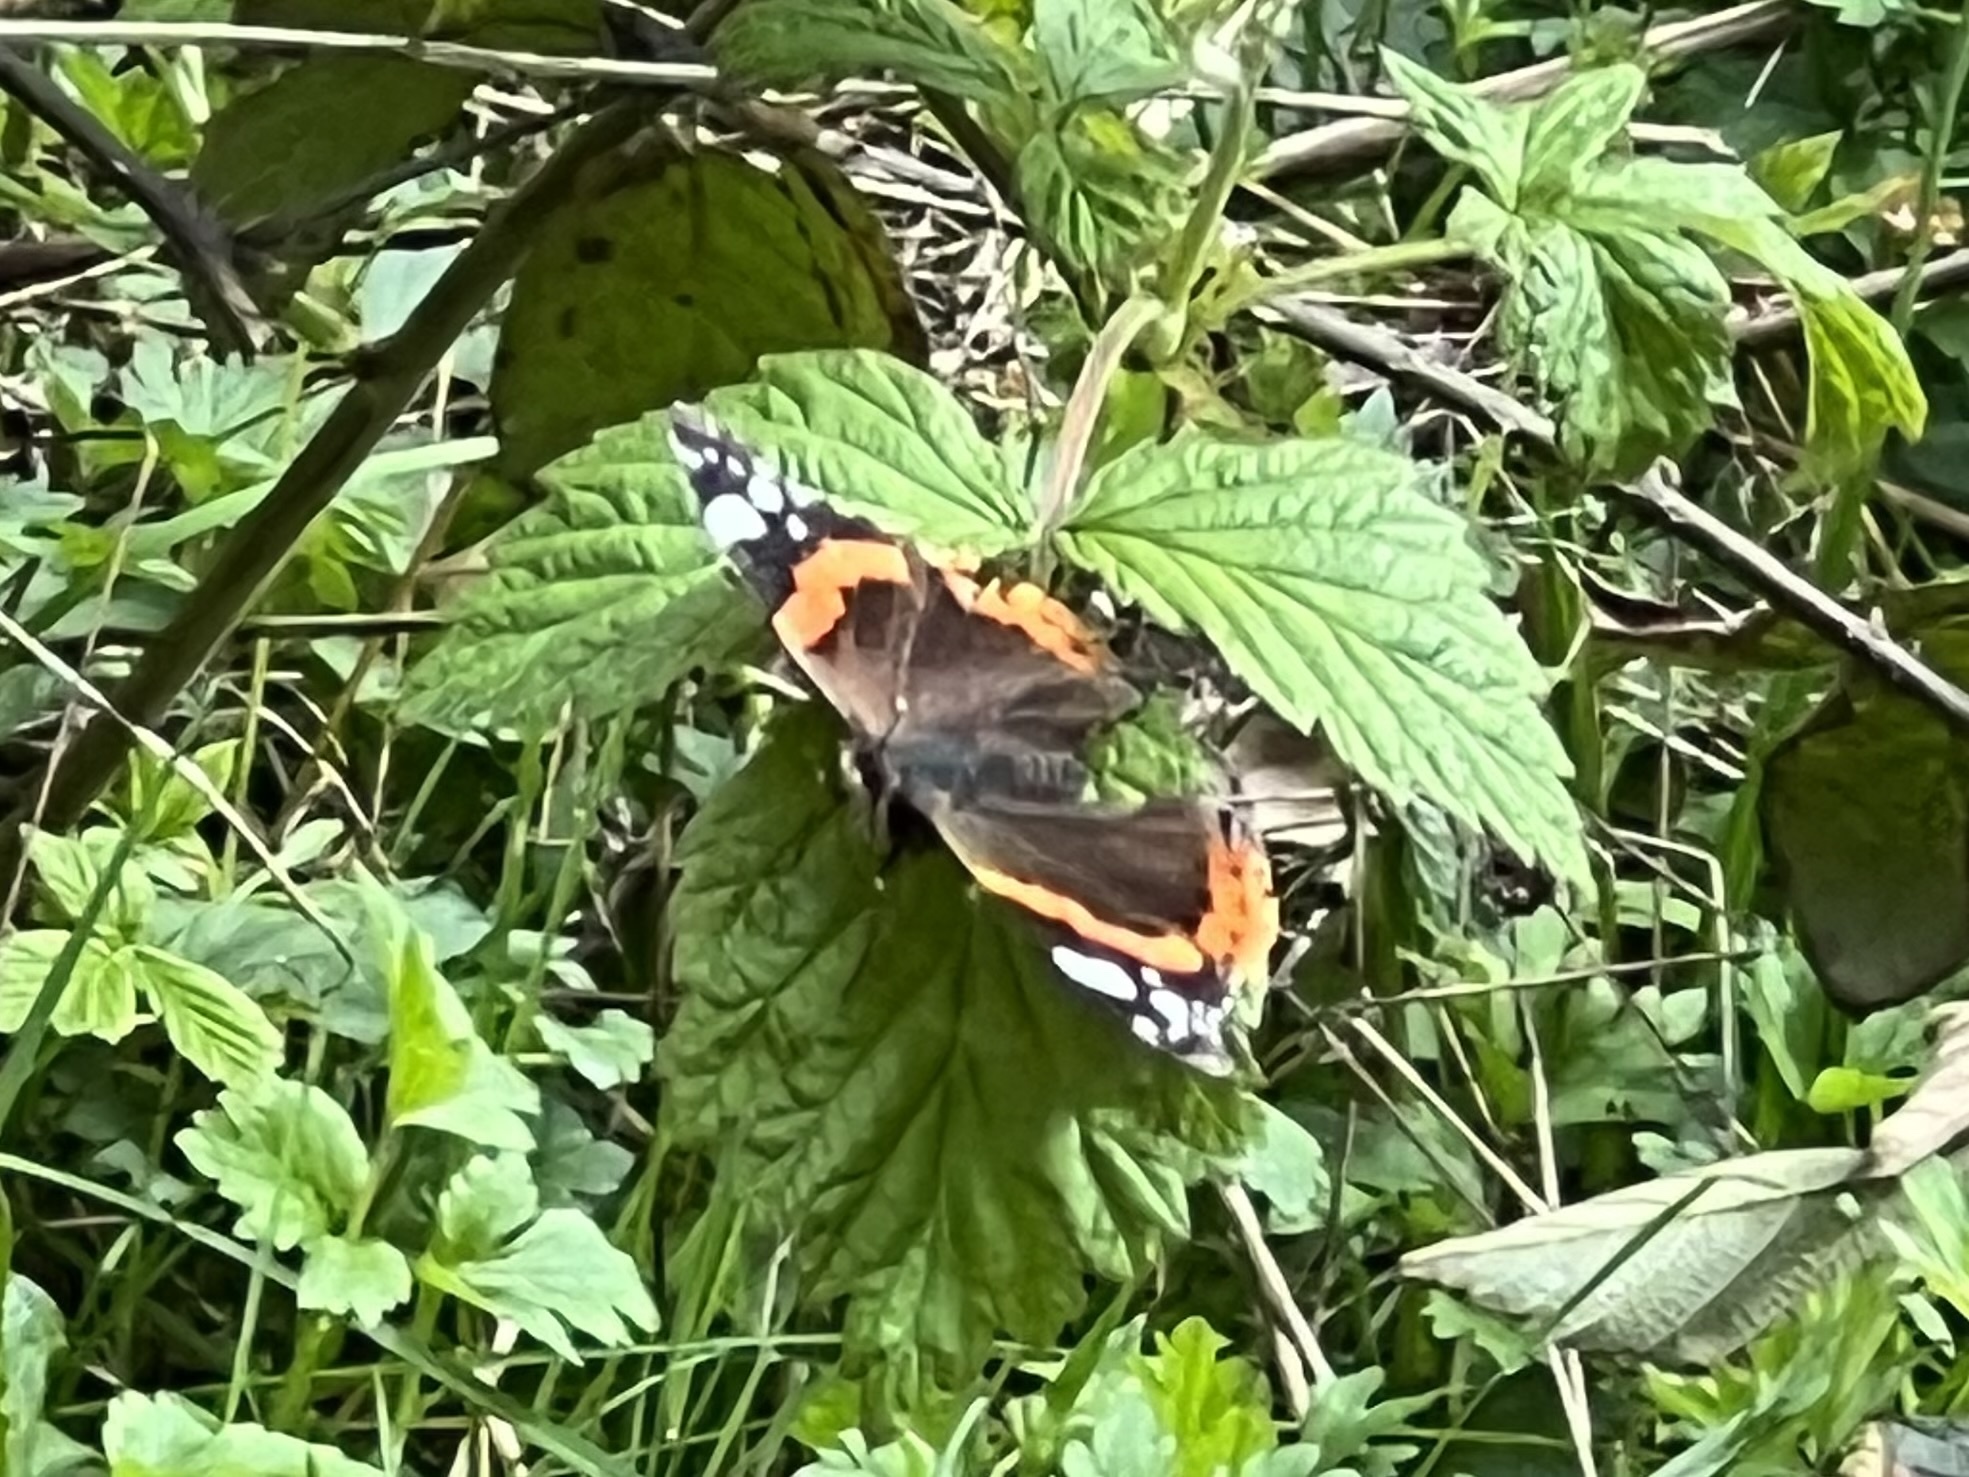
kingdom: Animalia
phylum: Arthropoda
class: Insecta
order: Lepidoptera
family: Nymphalidae
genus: Vanessa
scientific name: Vanessa atalanta
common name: Red admiral
